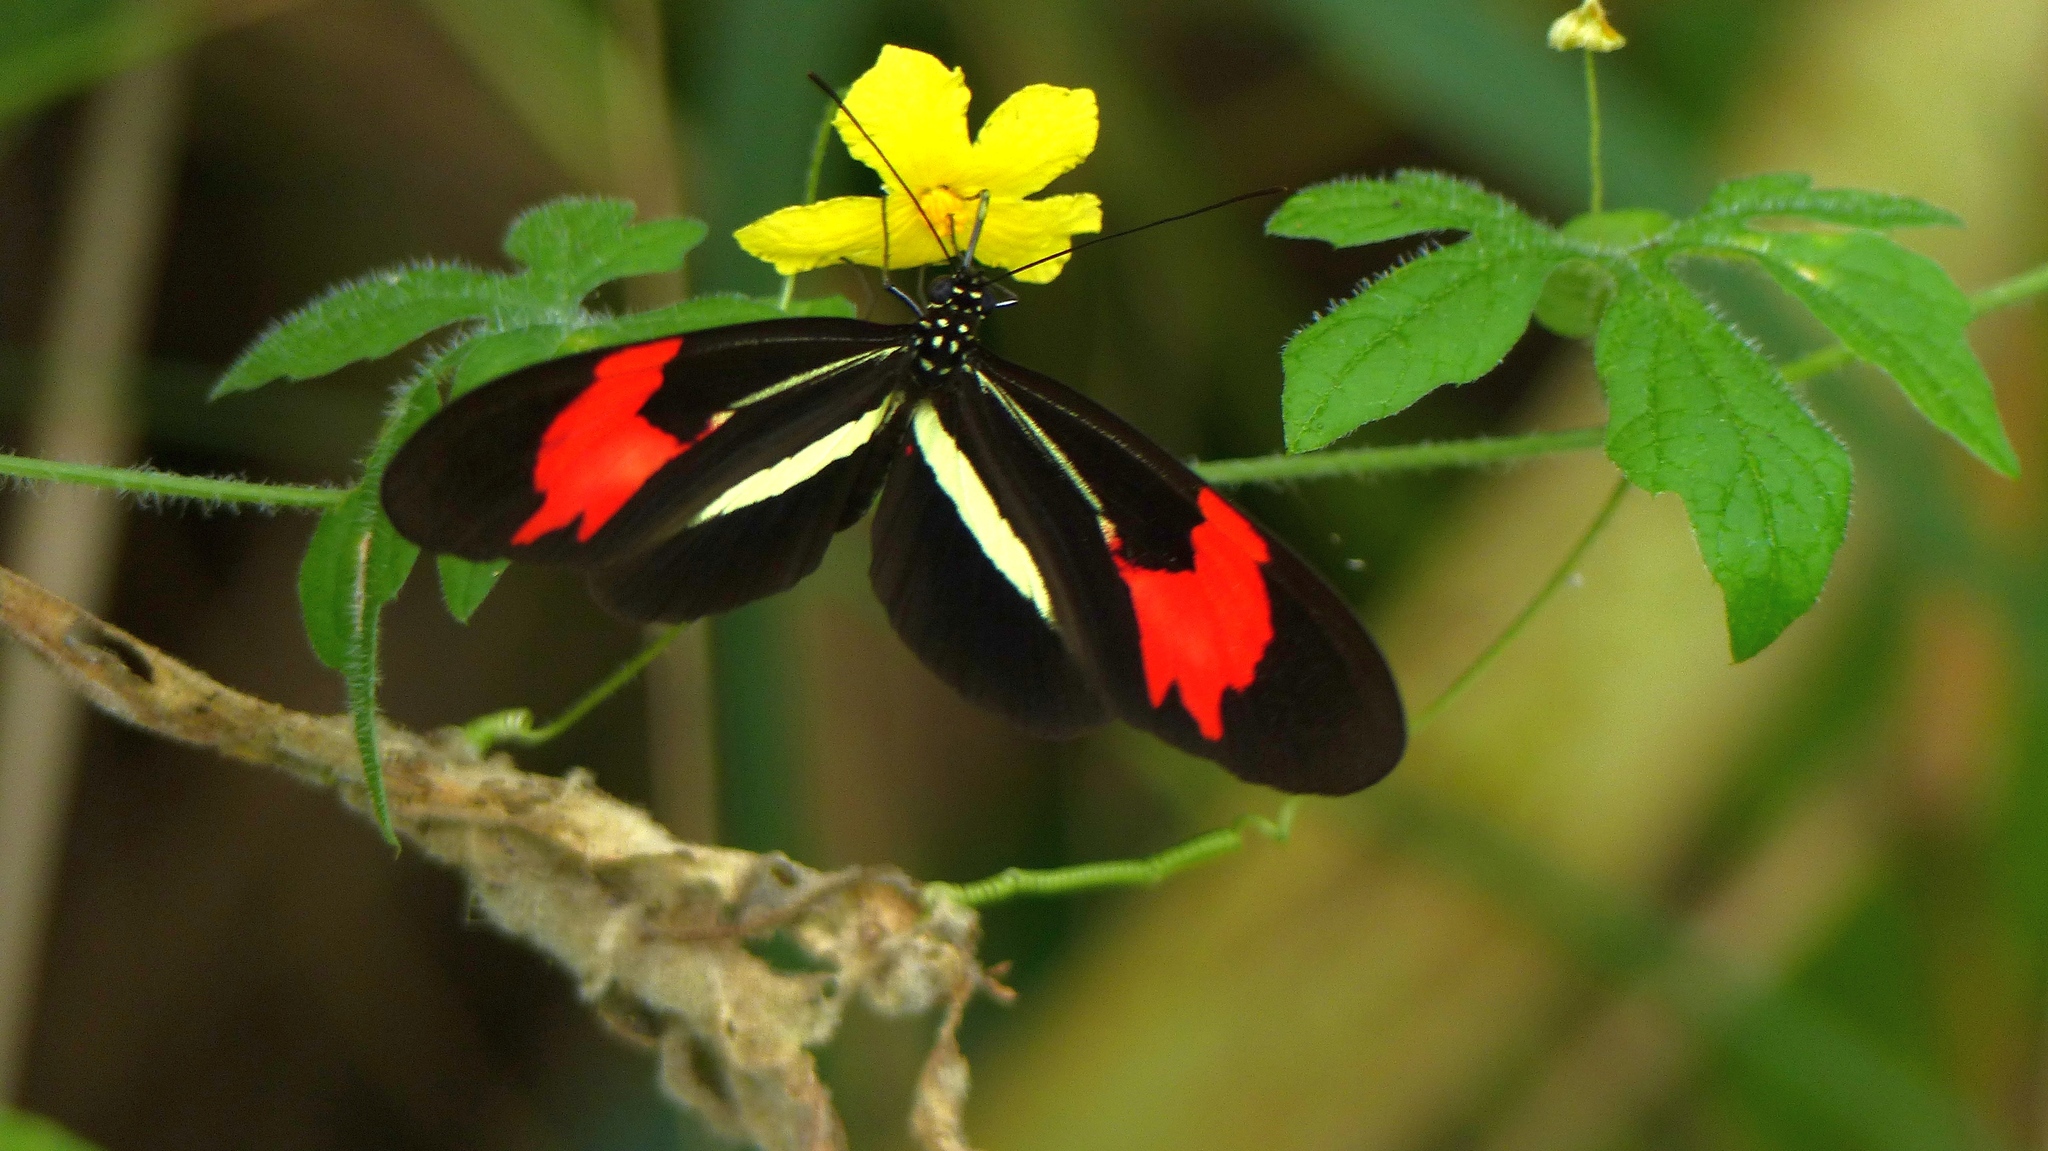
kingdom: Animalia
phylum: Arthropoda
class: Insecta
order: Lepidoptera
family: Nymphalidae
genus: Heliconius
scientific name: Heliconius erato
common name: Common patch longwing
